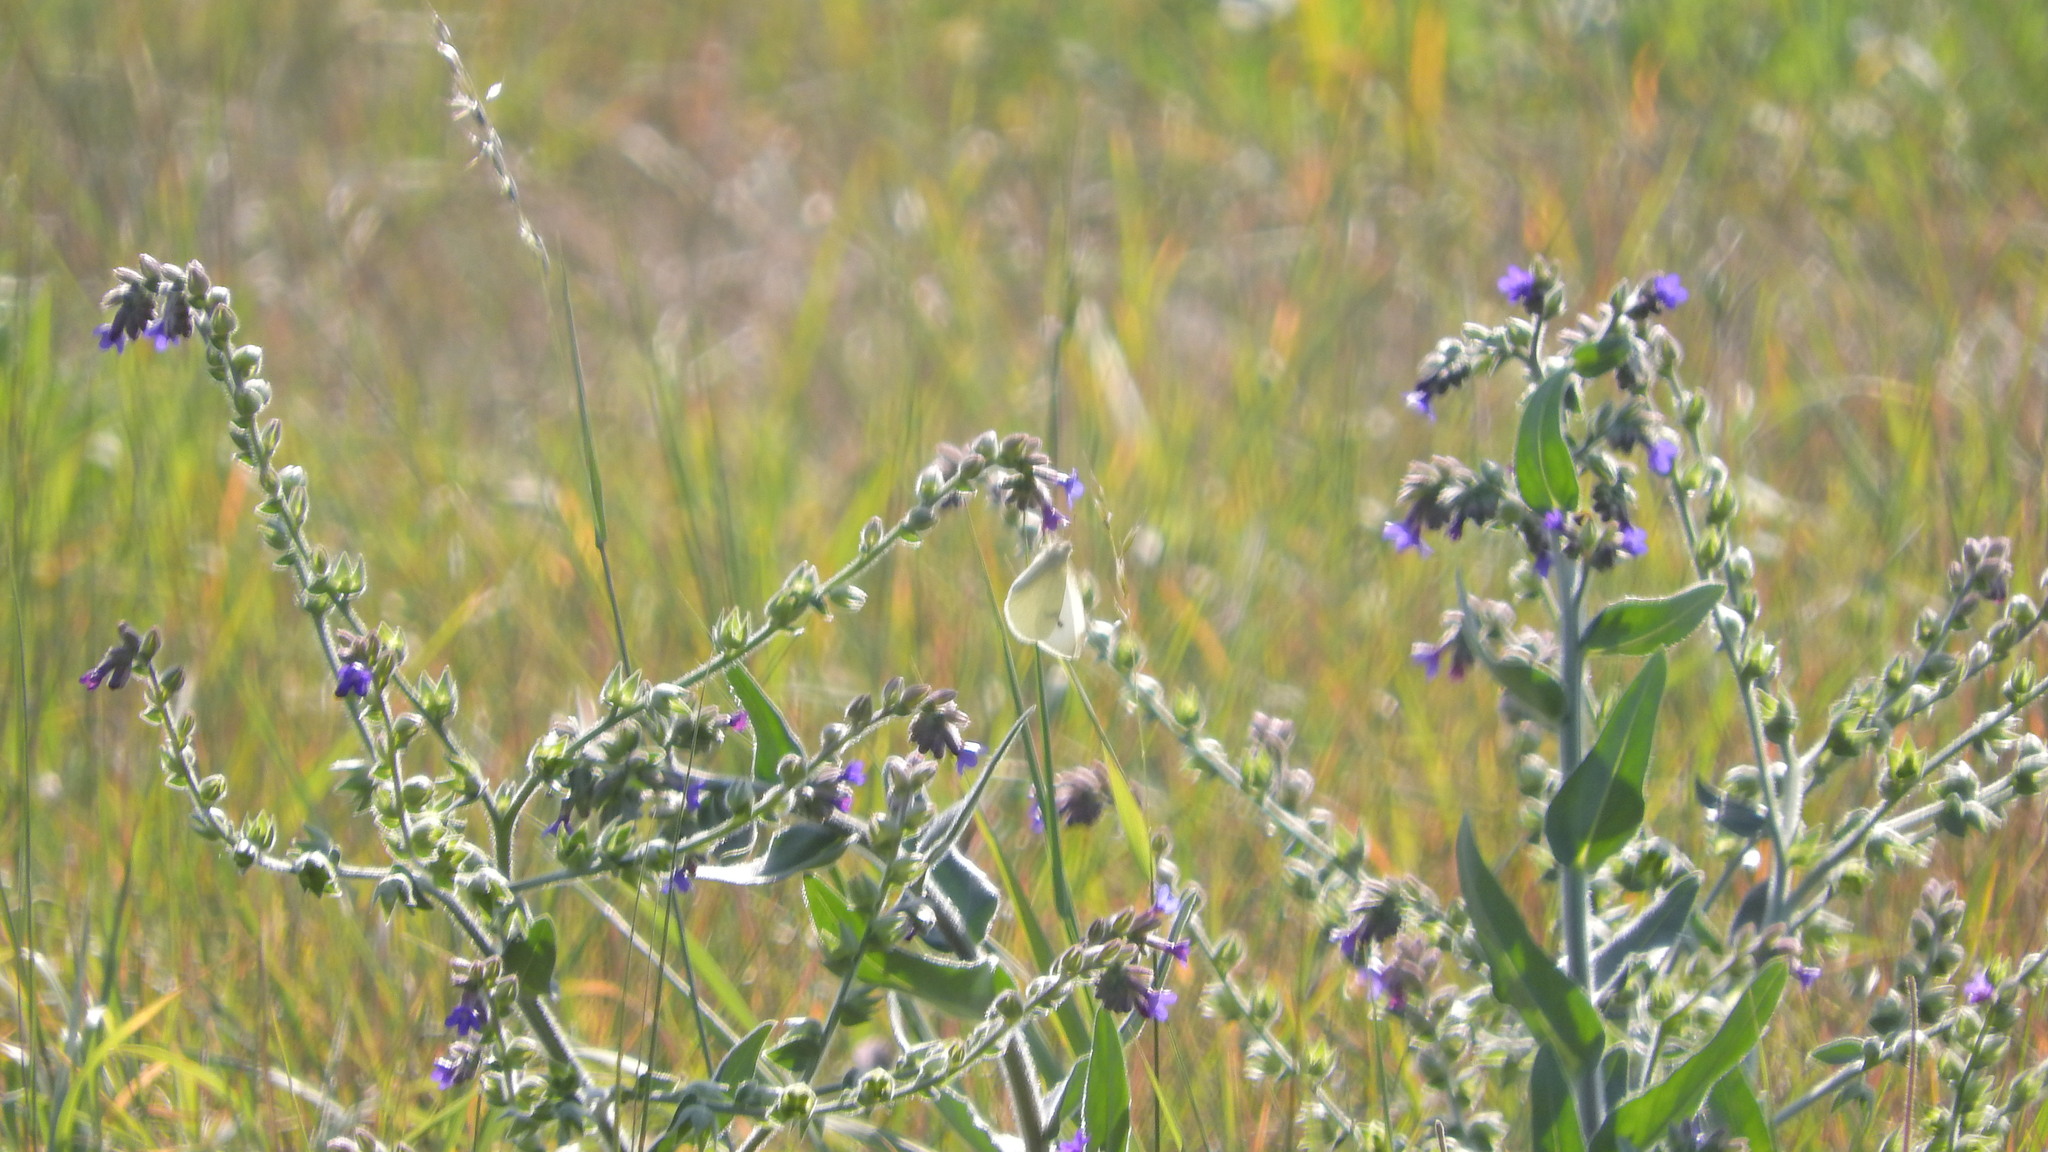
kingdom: Plantae
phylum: Tracheophyta
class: Magnoliopsida
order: Boraginales
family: Boraginaceae
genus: Anchusa
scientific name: Anchusa officinalis
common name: Alkanet
